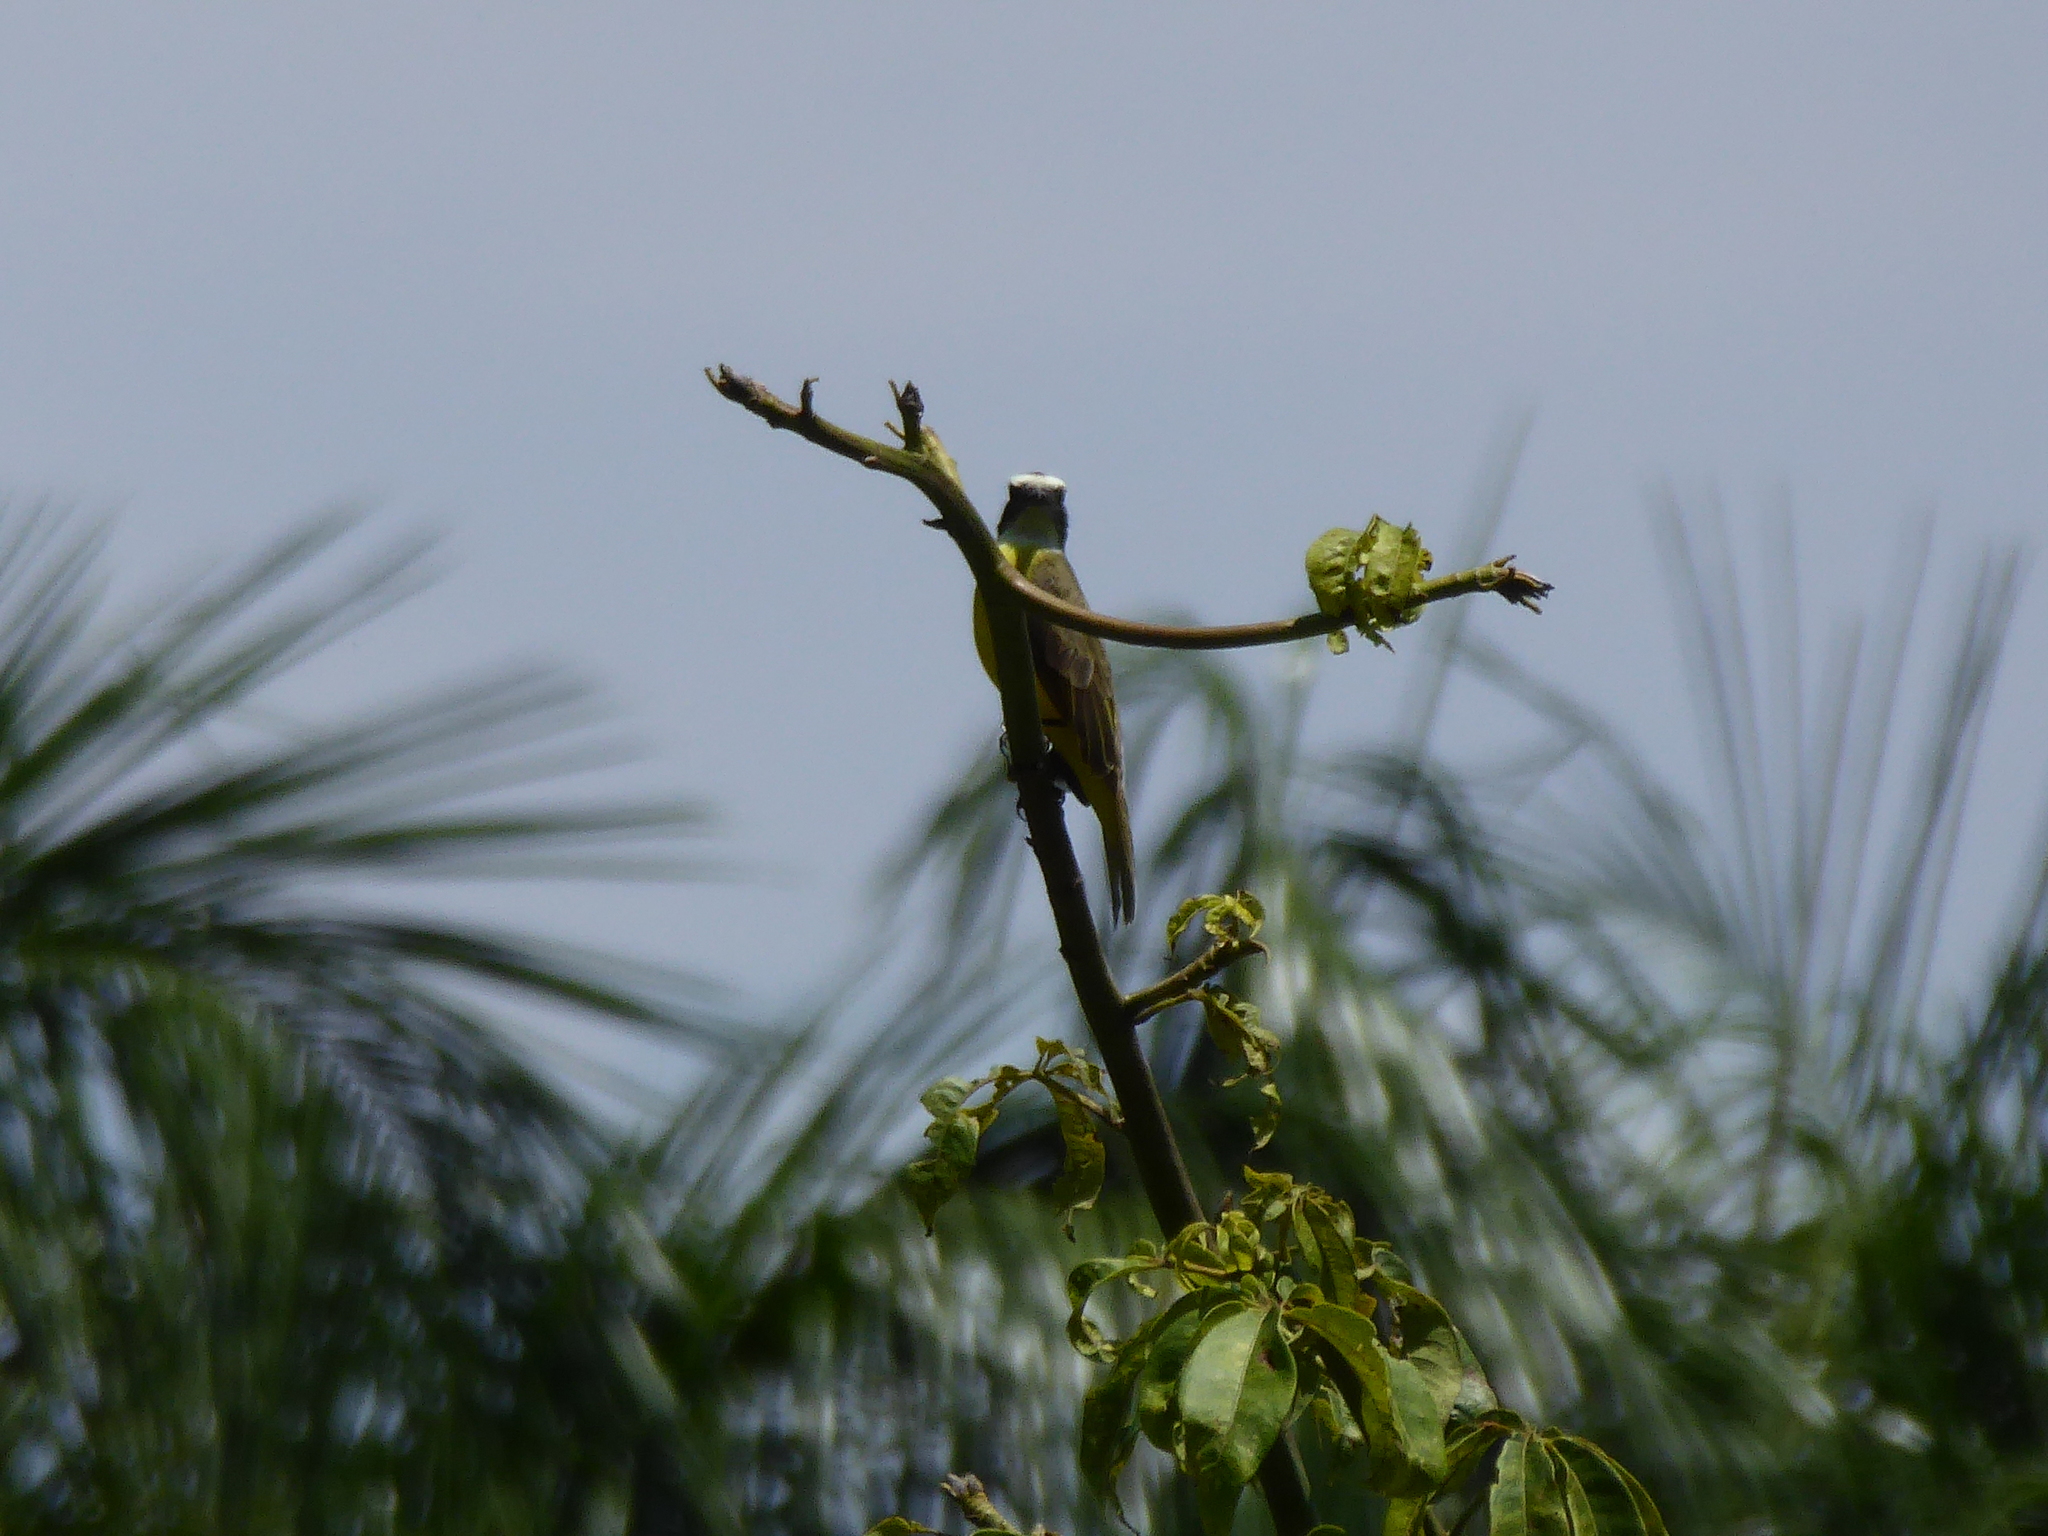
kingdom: Animalia
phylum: Chordata
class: Aves
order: Passeriformes
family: Tyrannidae
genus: Pitangus
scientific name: Pitangus sulphuratus
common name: Great kiskadee
